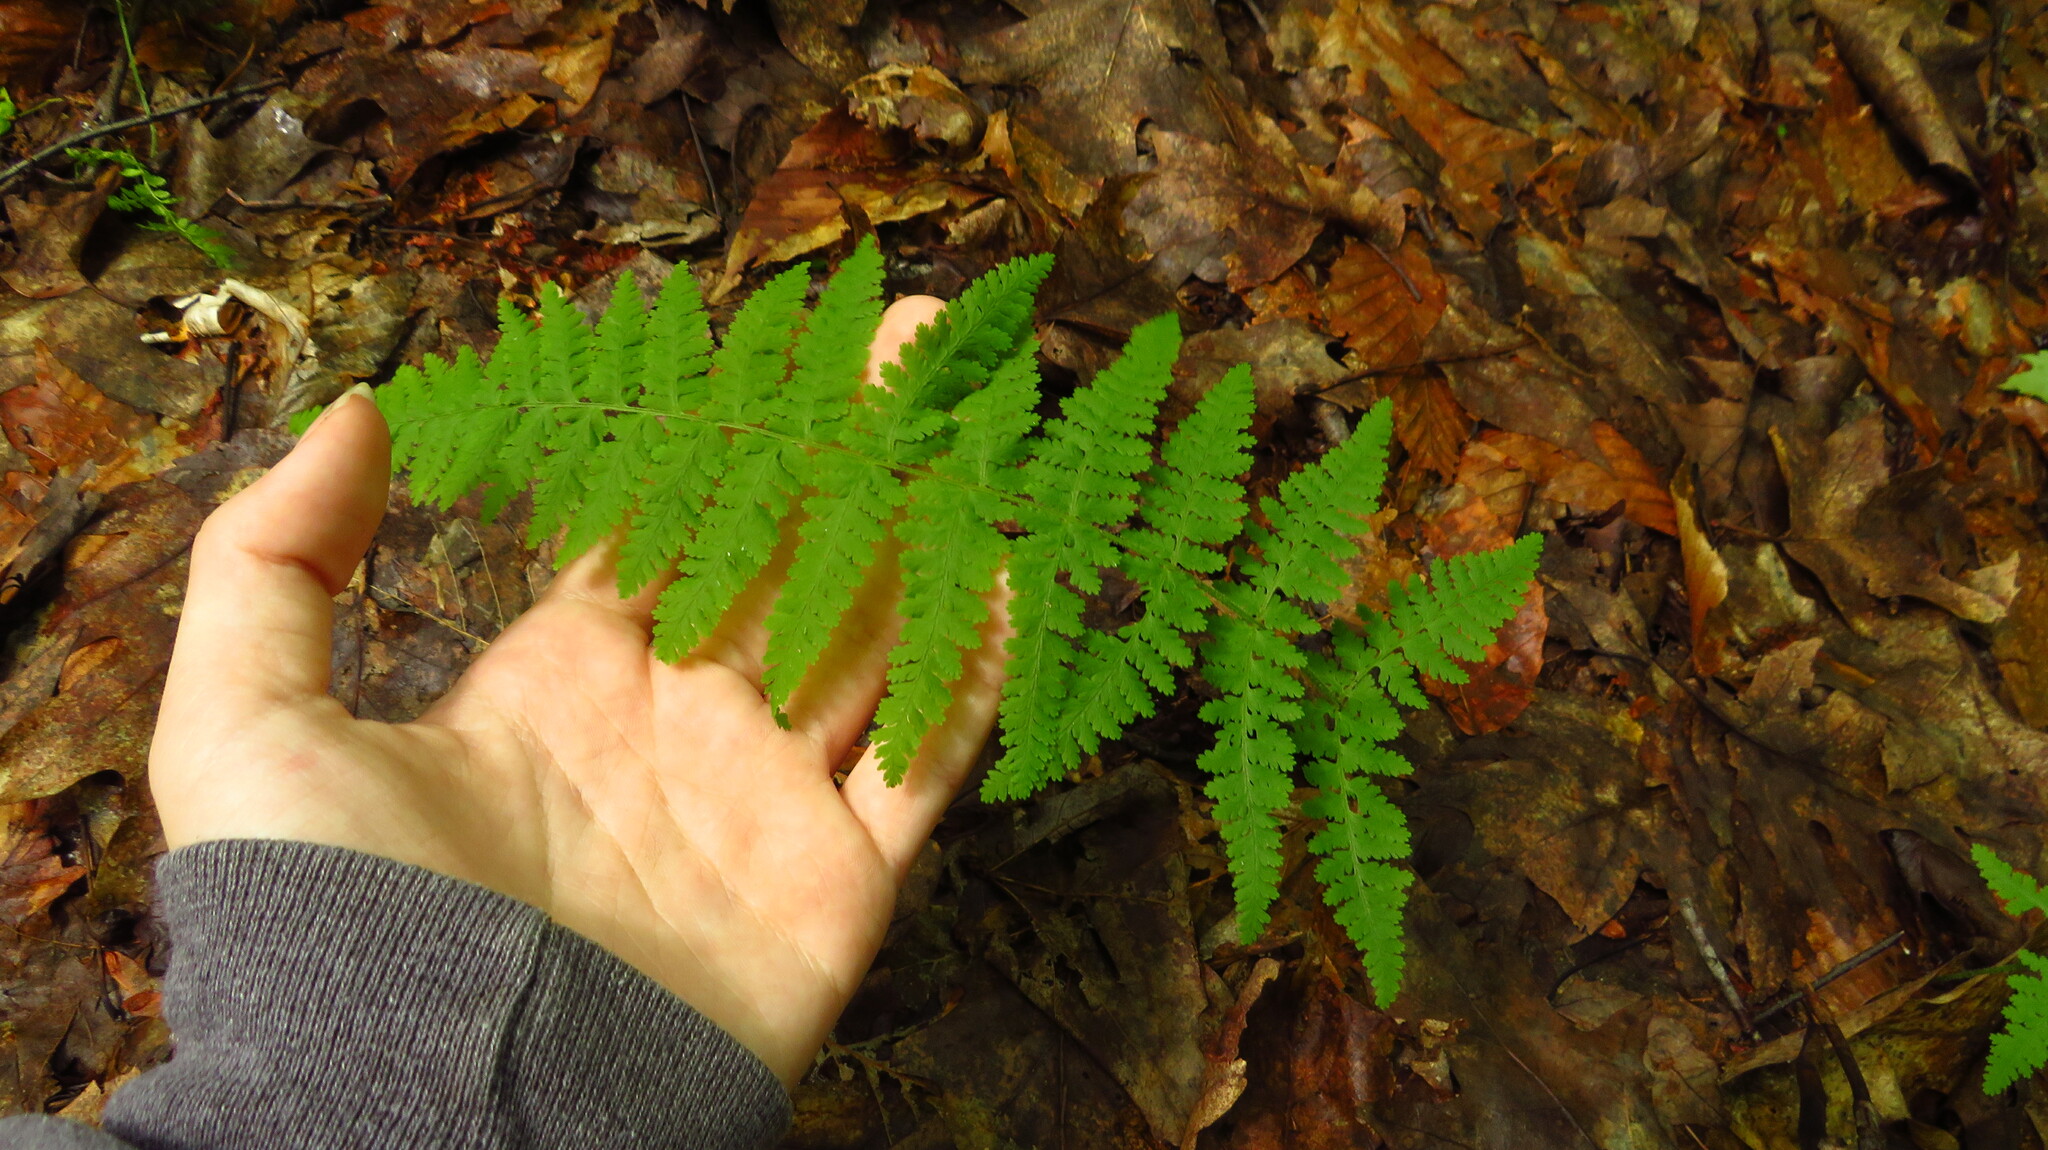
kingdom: Plantae
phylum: Tracheophyta
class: Polypodiopsida
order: Polypodiales
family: Dennstaedtiaceae
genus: Sitobolium
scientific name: Sitobolium punctilobum
